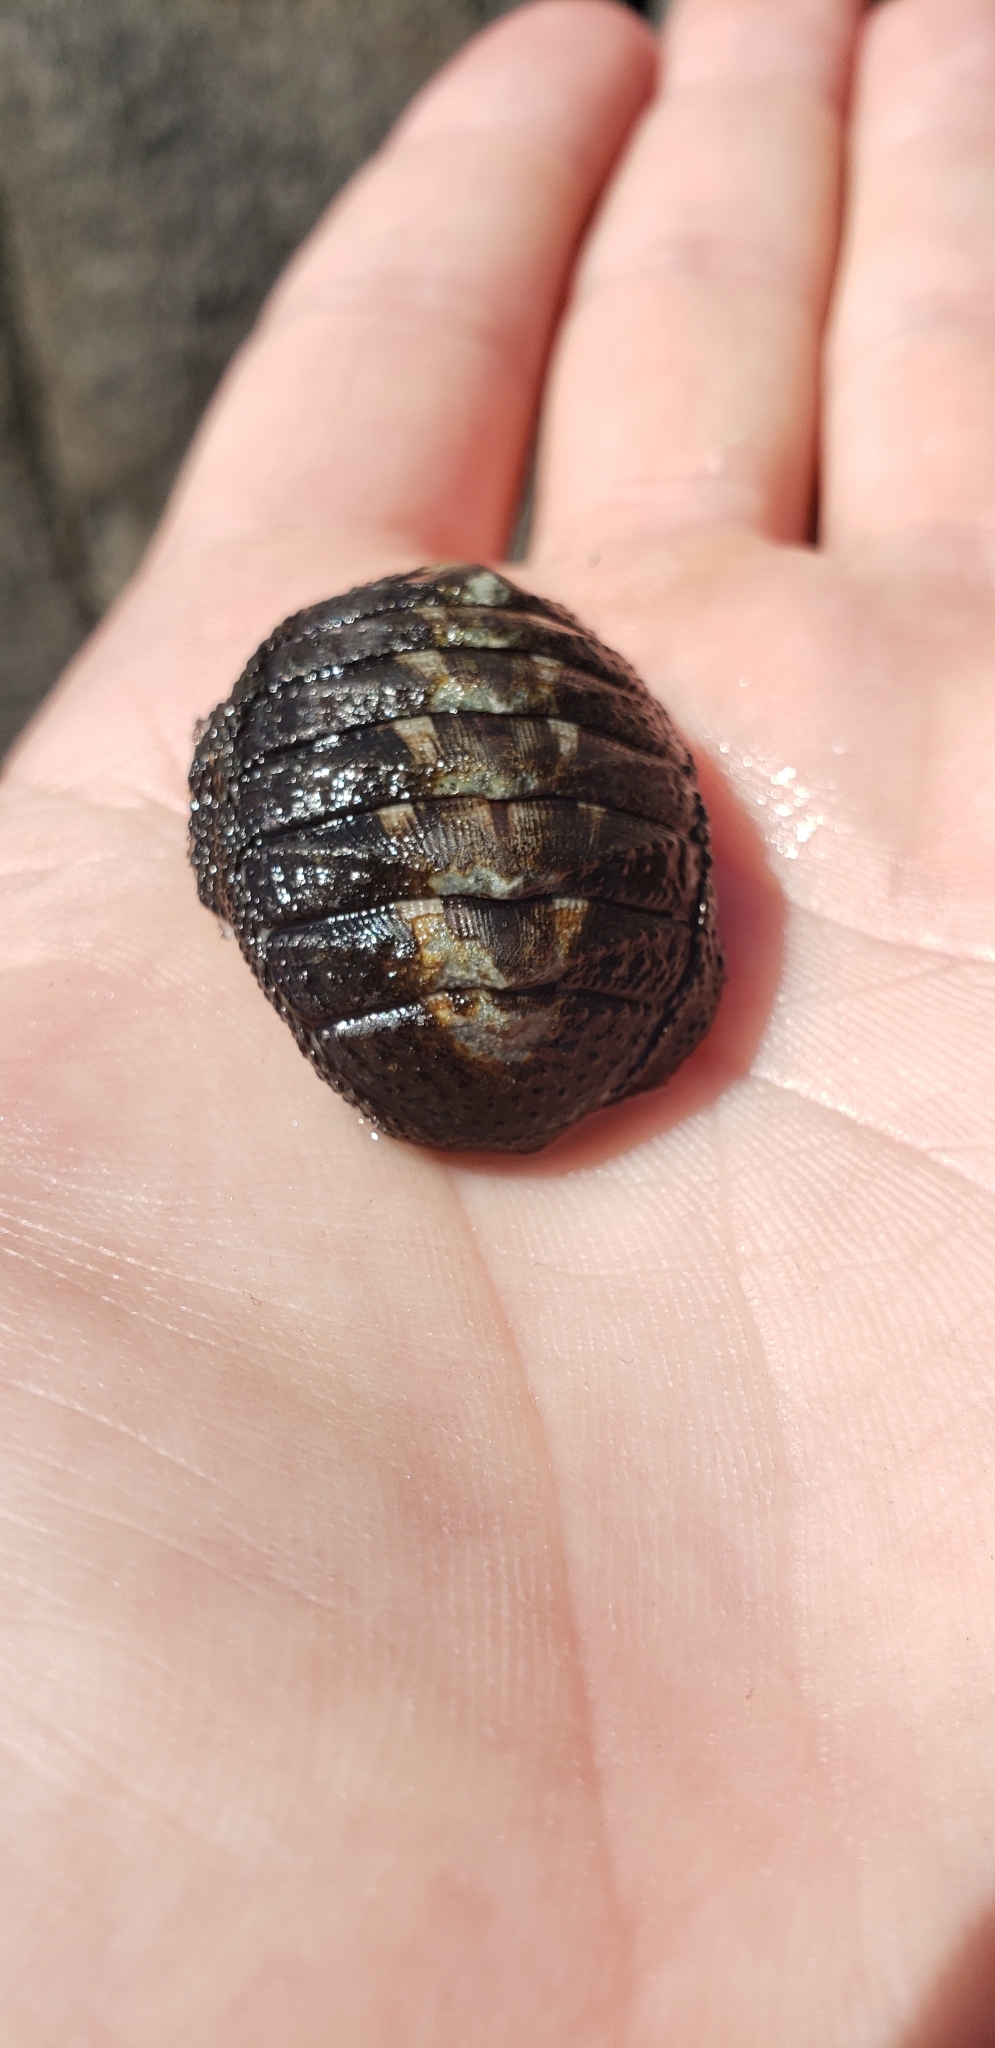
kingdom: Animalia
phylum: Mollusca
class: Polyplacophora
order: Chitonida
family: Chitonidae
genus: Chiton
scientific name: Chiton granosus
